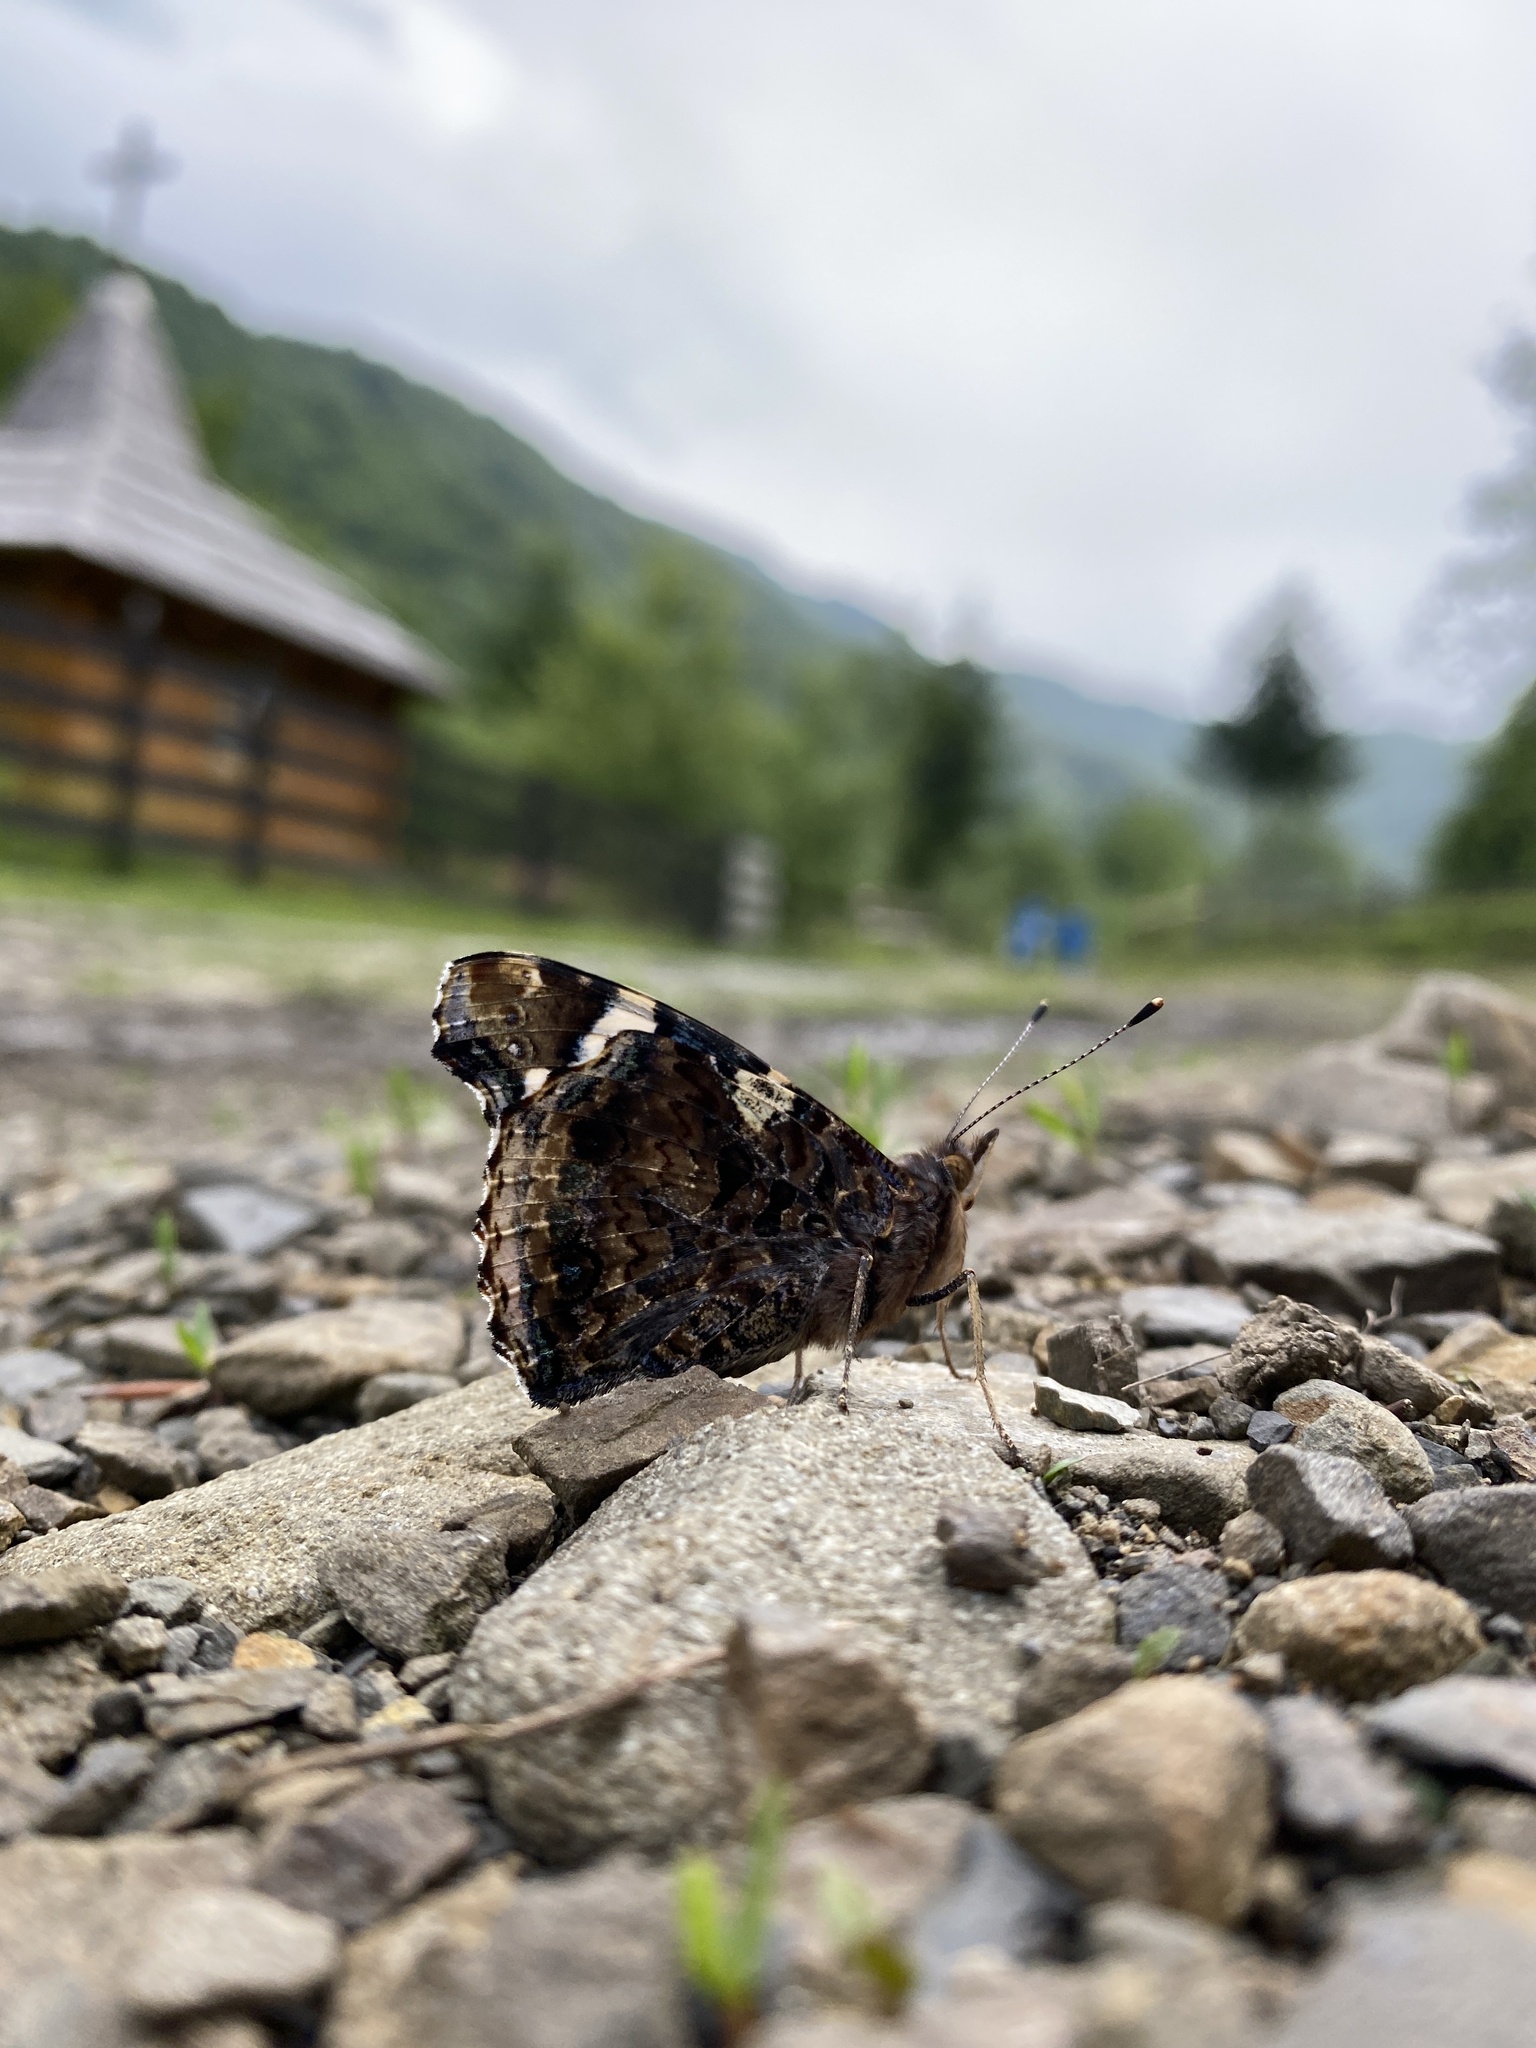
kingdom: Animalia
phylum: Arthropoda
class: Insecta
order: Lepidoptera
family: Nymphalidae
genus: Vanessa
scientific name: Vanessa atalanta
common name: Red admiral
